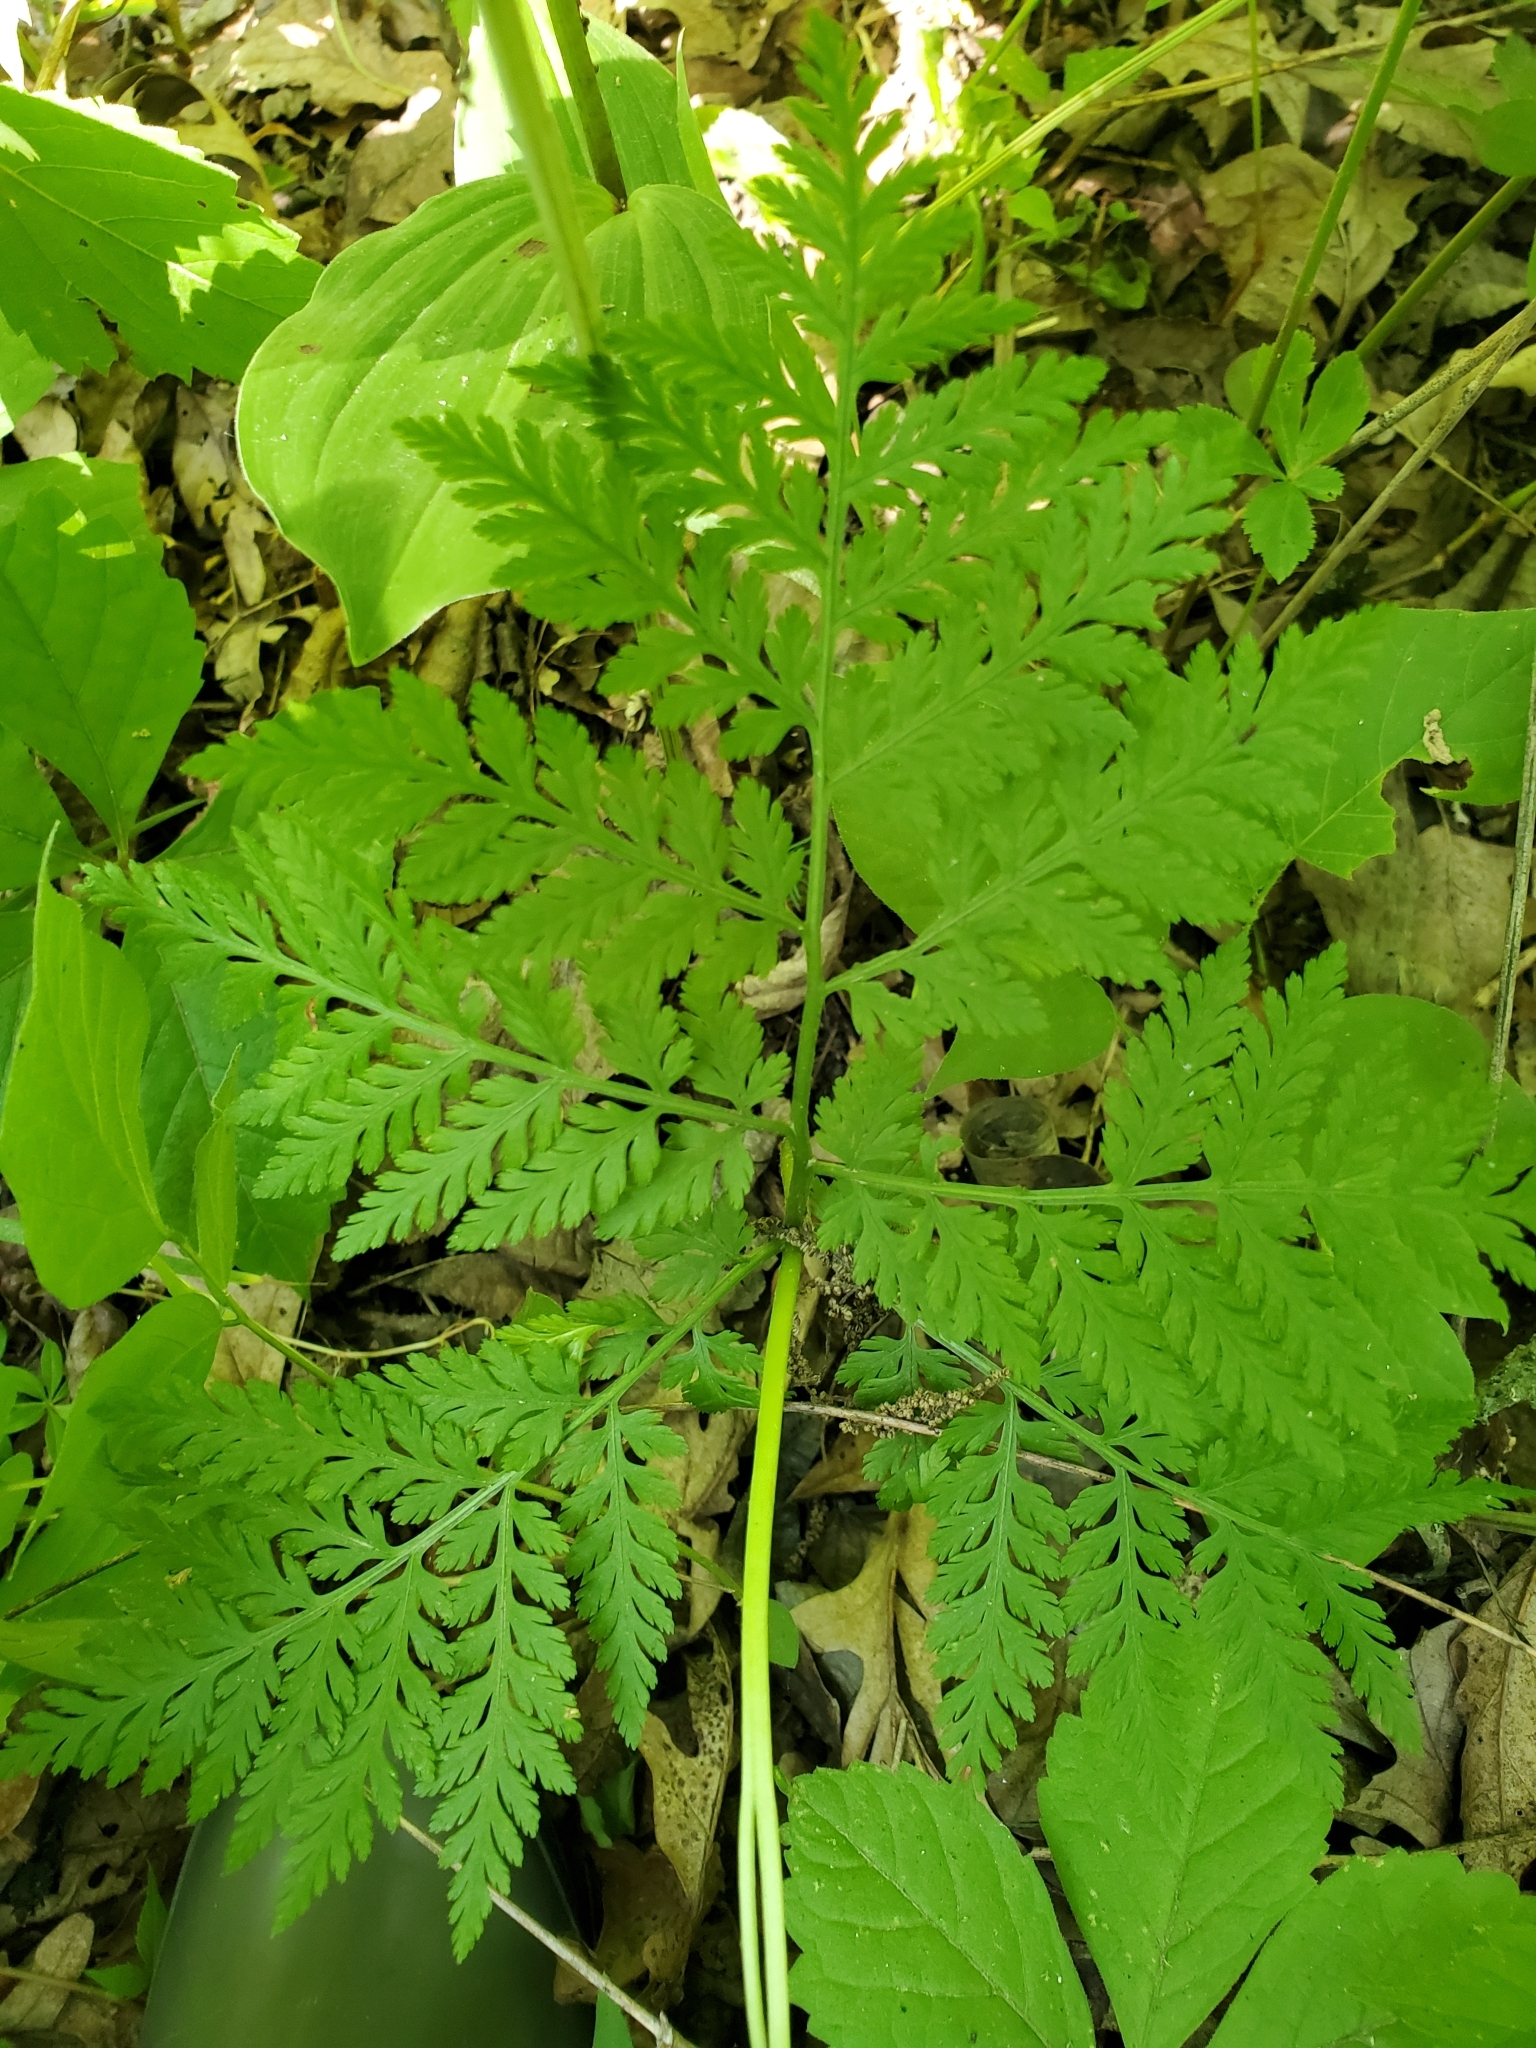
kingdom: Plantae
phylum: Tracheophyta
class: Polypodiopsida
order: Ophioglossales
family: Ophioglossaceae
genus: Botrypus
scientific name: Botrypus virginianus
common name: Common grapefern
